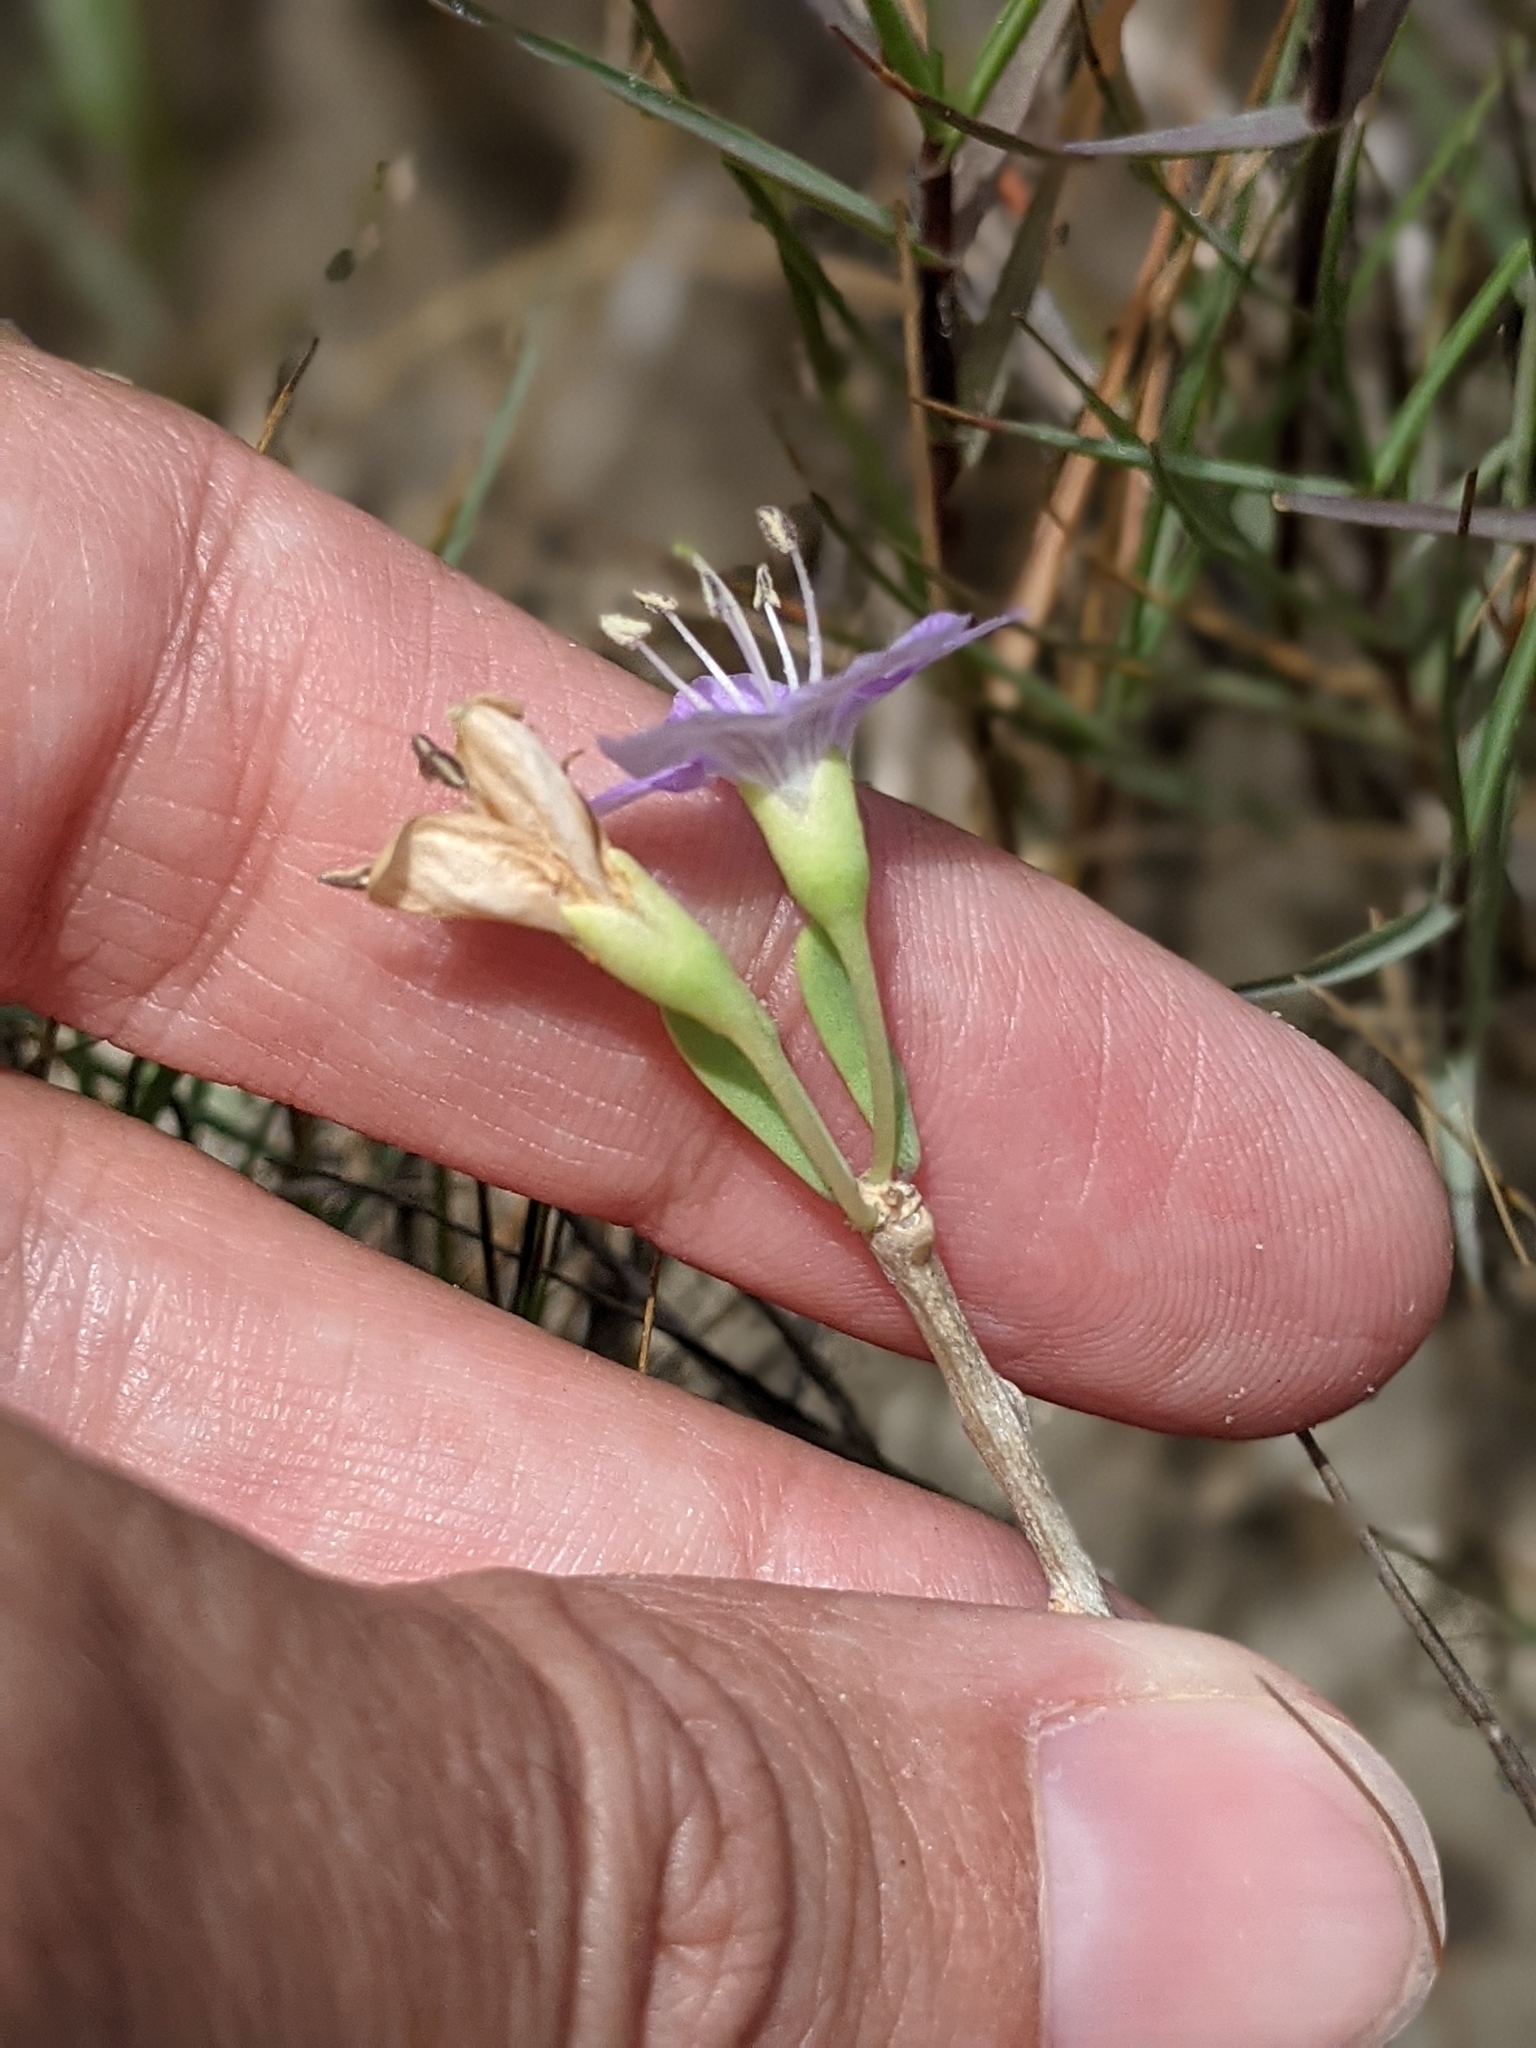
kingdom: Plantae
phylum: Tracheophyta
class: Magnoliopsida
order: Solanales
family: Solanaceae
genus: Lycium
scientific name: Lycium carolinianum
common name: Christmasberry
